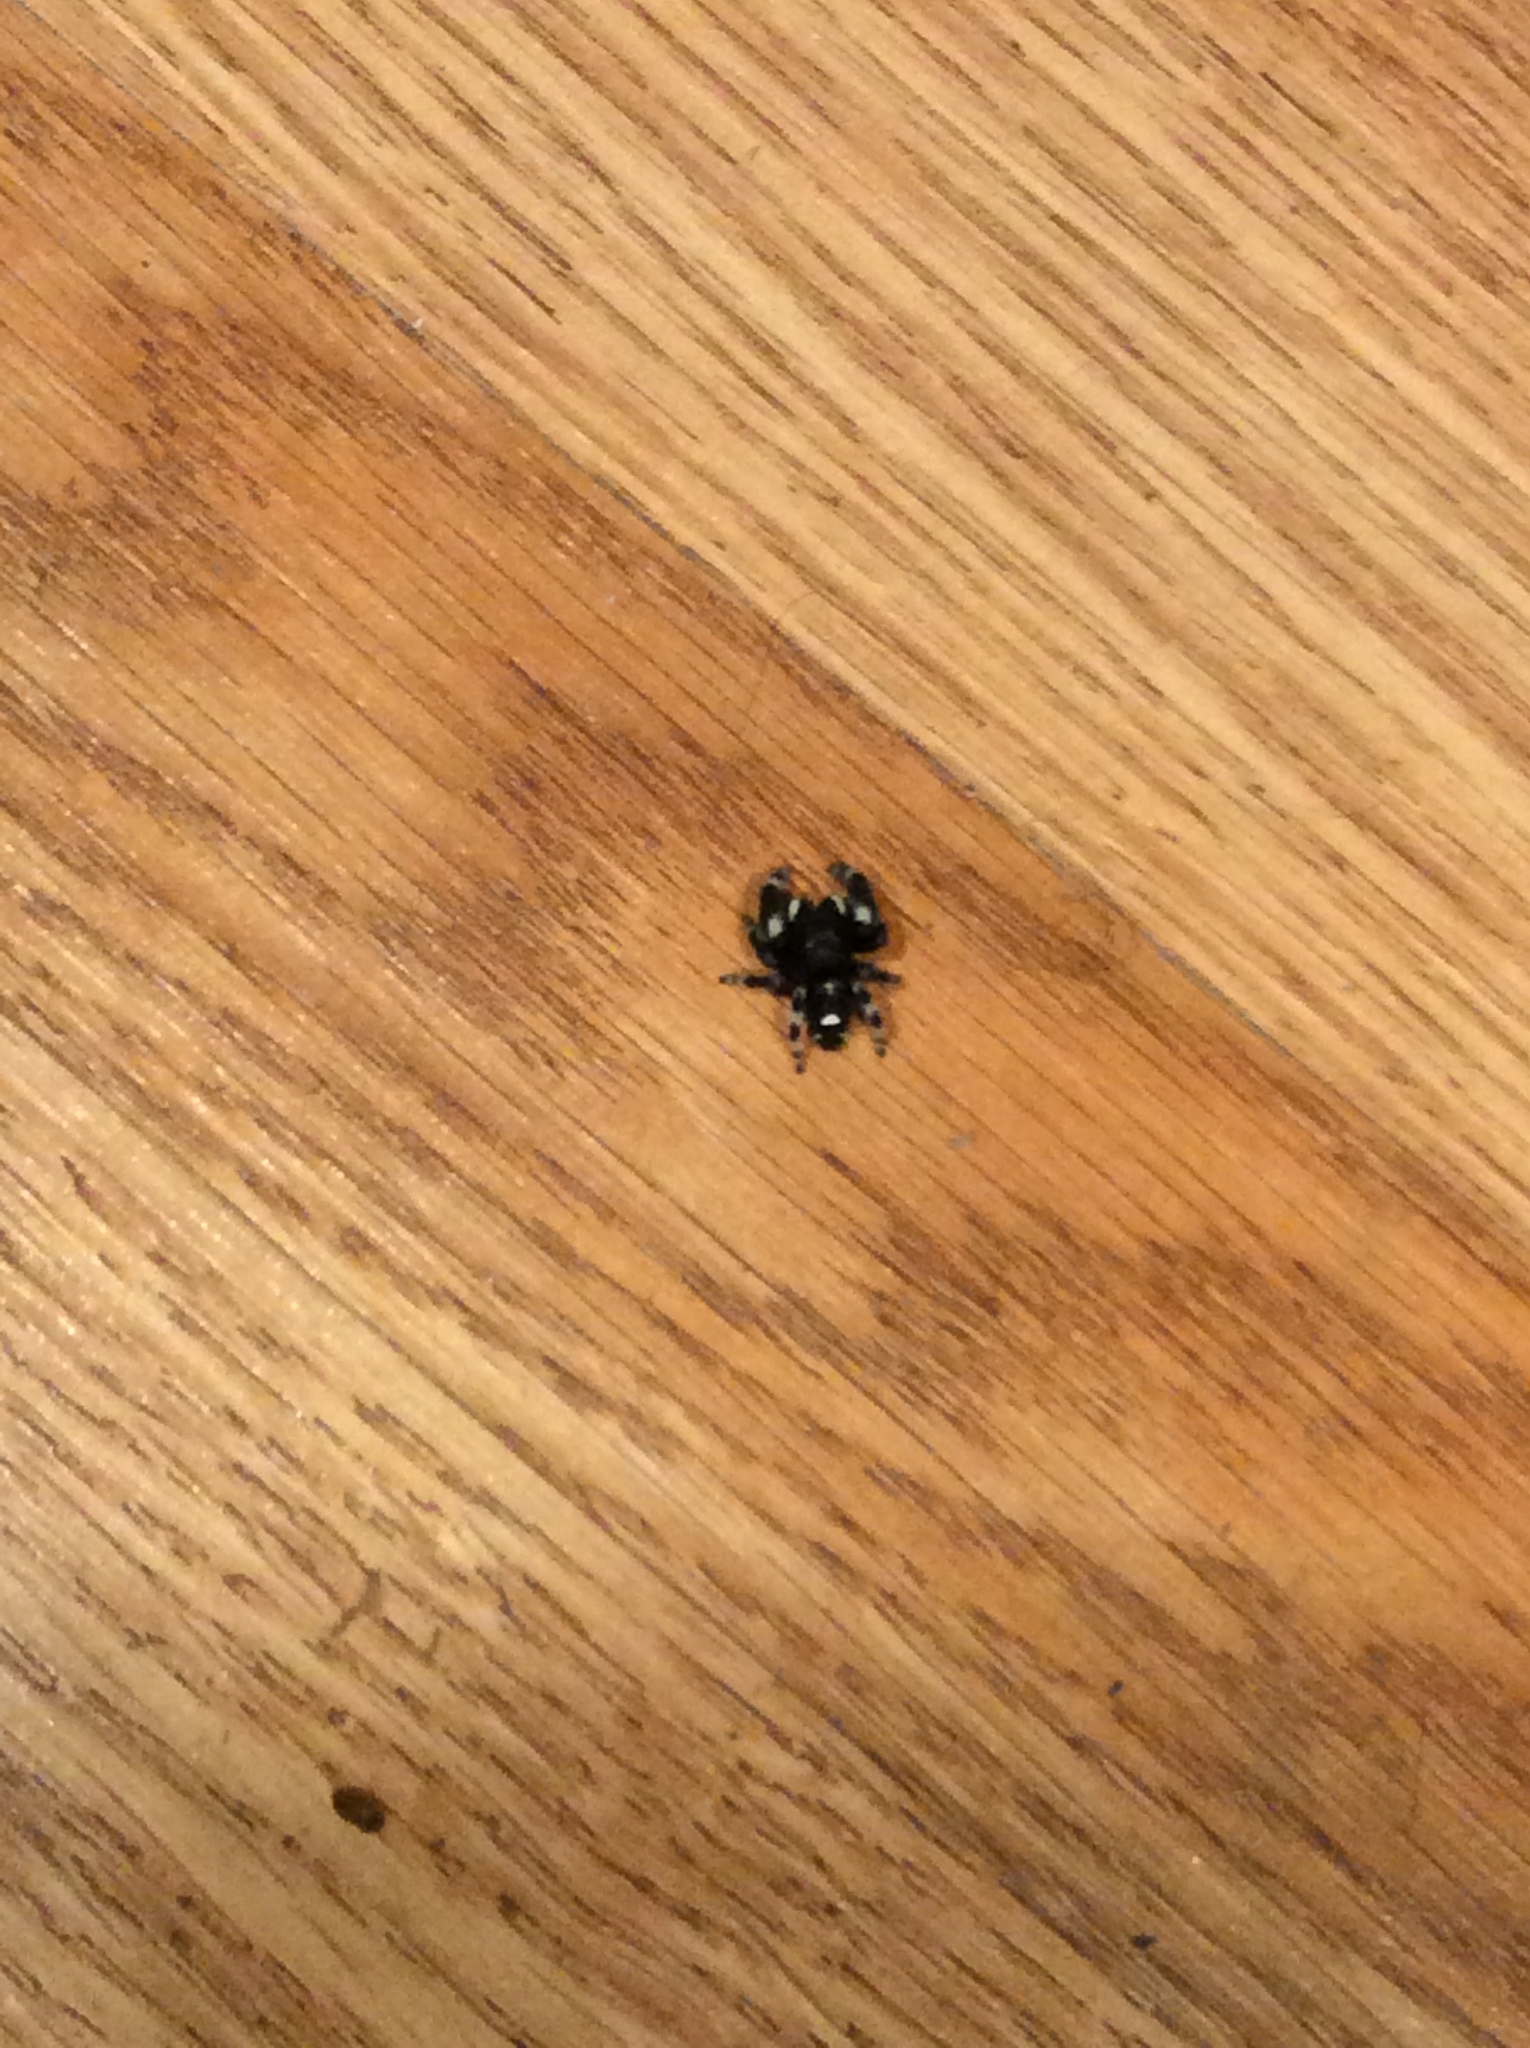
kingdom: Animalia
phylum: Arthropoda
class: Arachnida
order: Araneae
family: Salticidae
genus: Phidippus
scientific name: Phidippus audax
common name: Bold jumper
